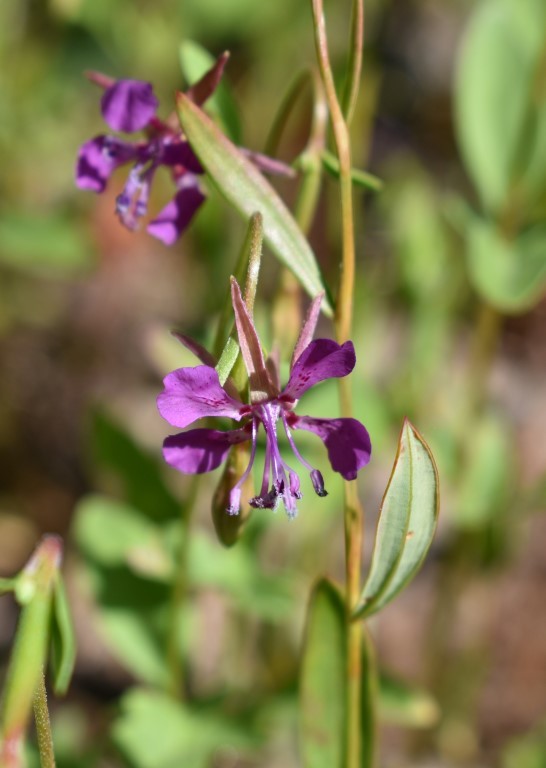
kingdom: Plantae
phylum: Tracheophyta
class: Magnoliopsida
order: Myrtales
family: Onagraceae
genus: Clarkia
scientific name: Clarkia rhomboidea
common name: Broadleaf clarkia
